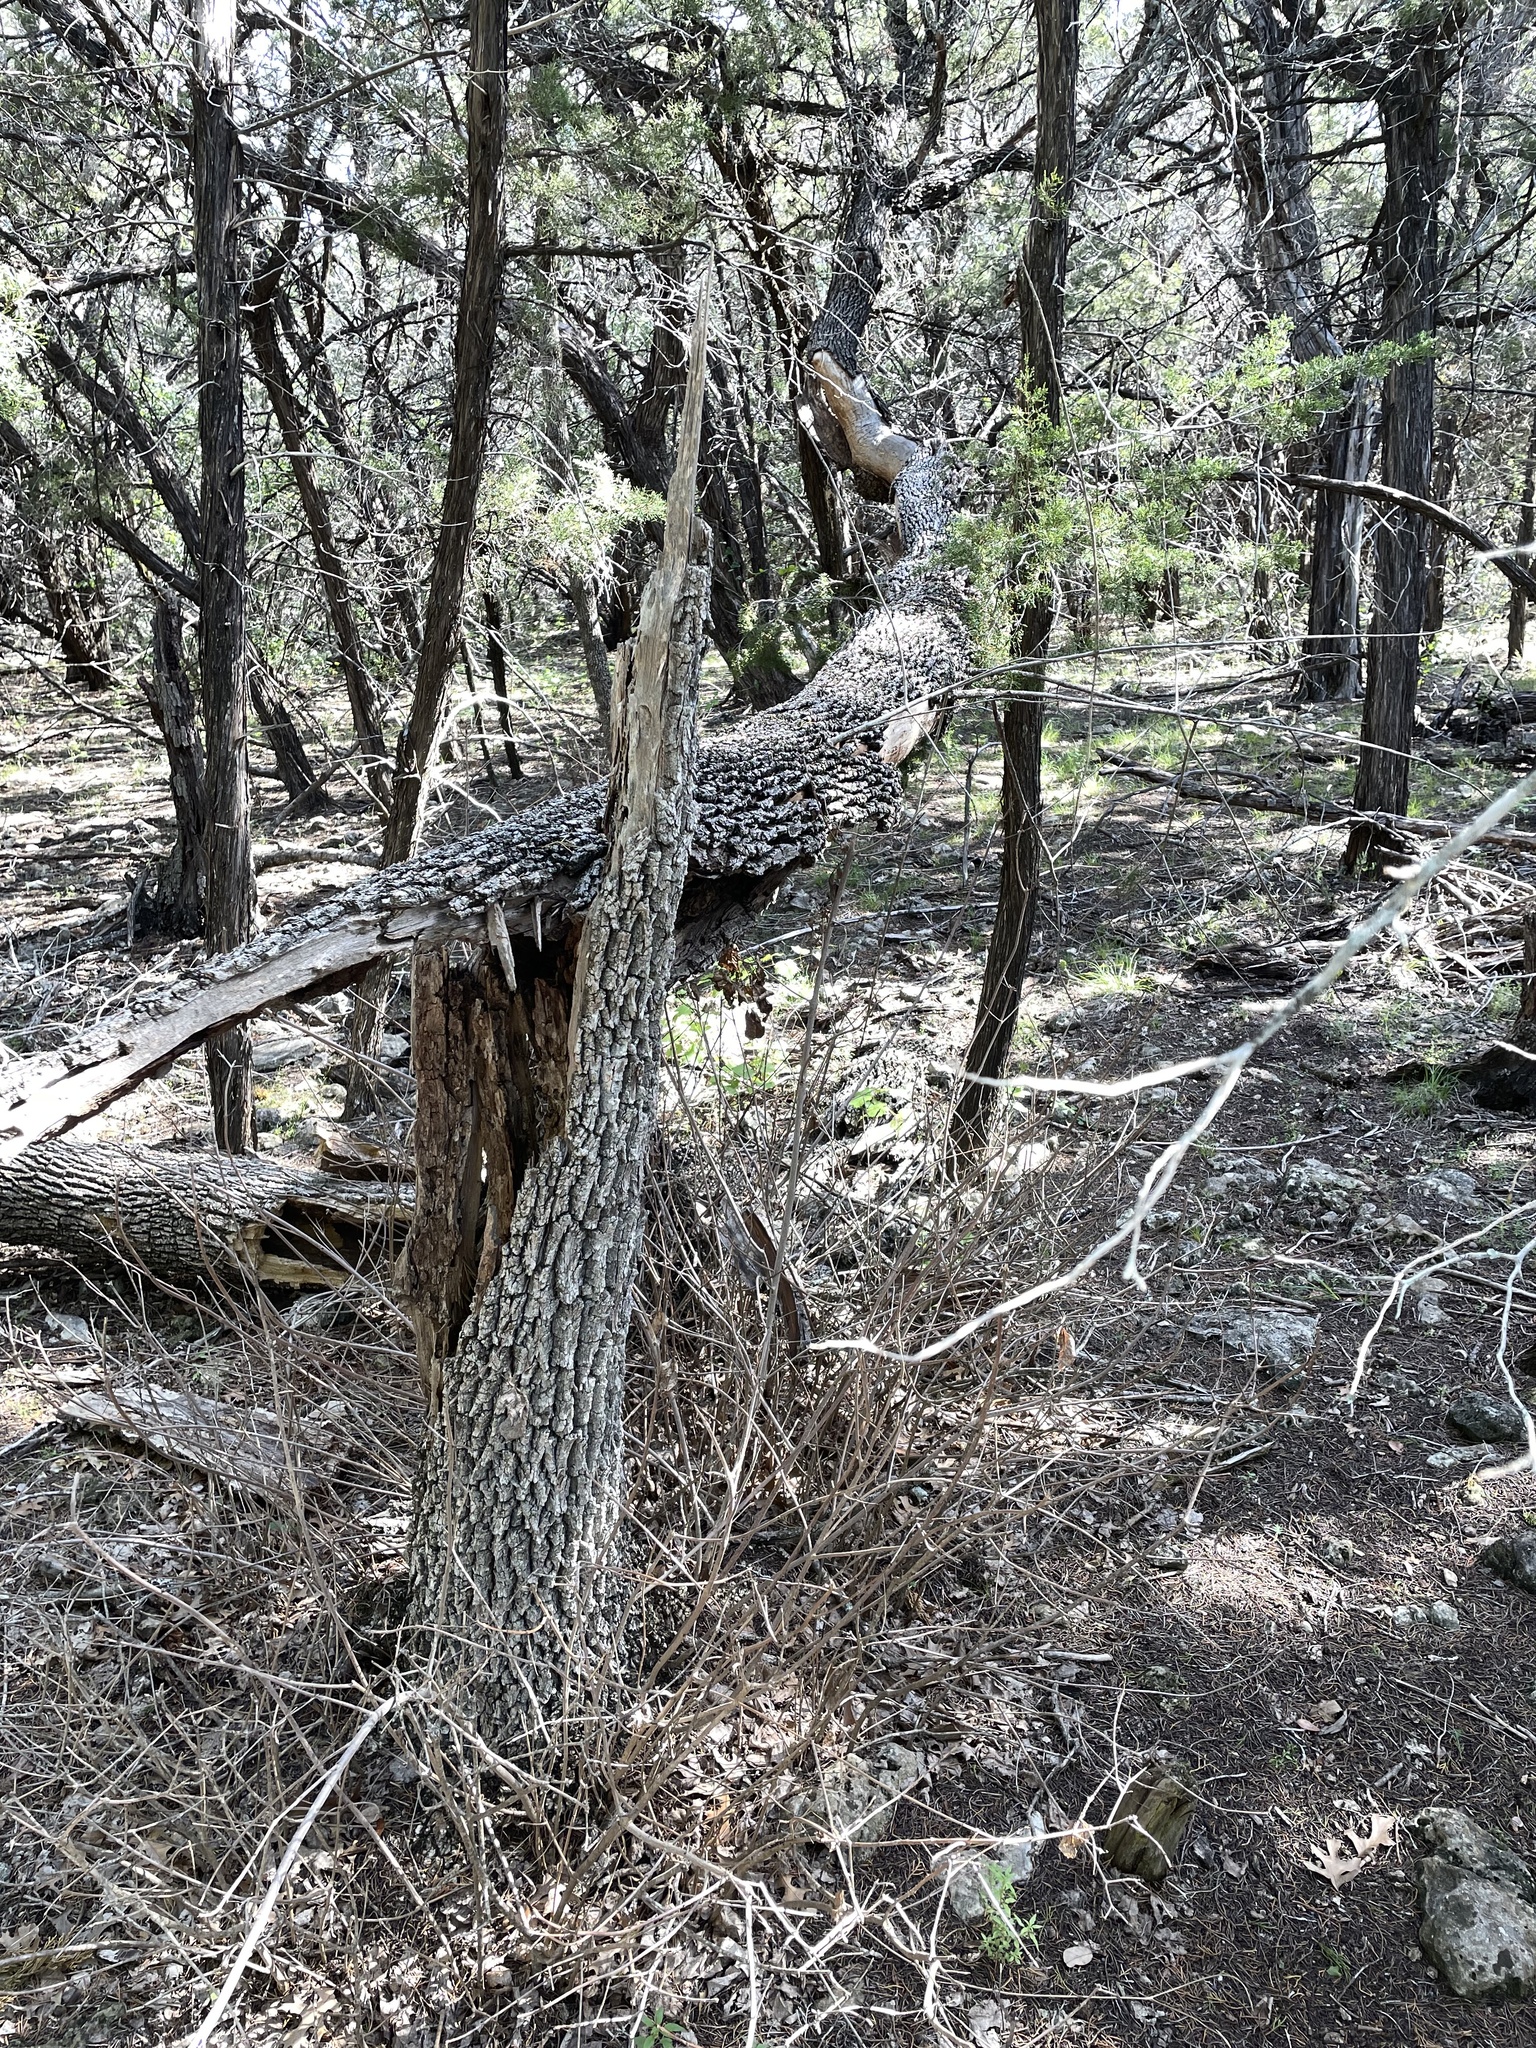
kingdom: Plantae
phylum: Tracheophyta
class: Magnoliopsida
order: Lamiales
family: Oleaceae
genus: Fraxinus
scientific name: Fraxinus albicans
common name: Texas ash
